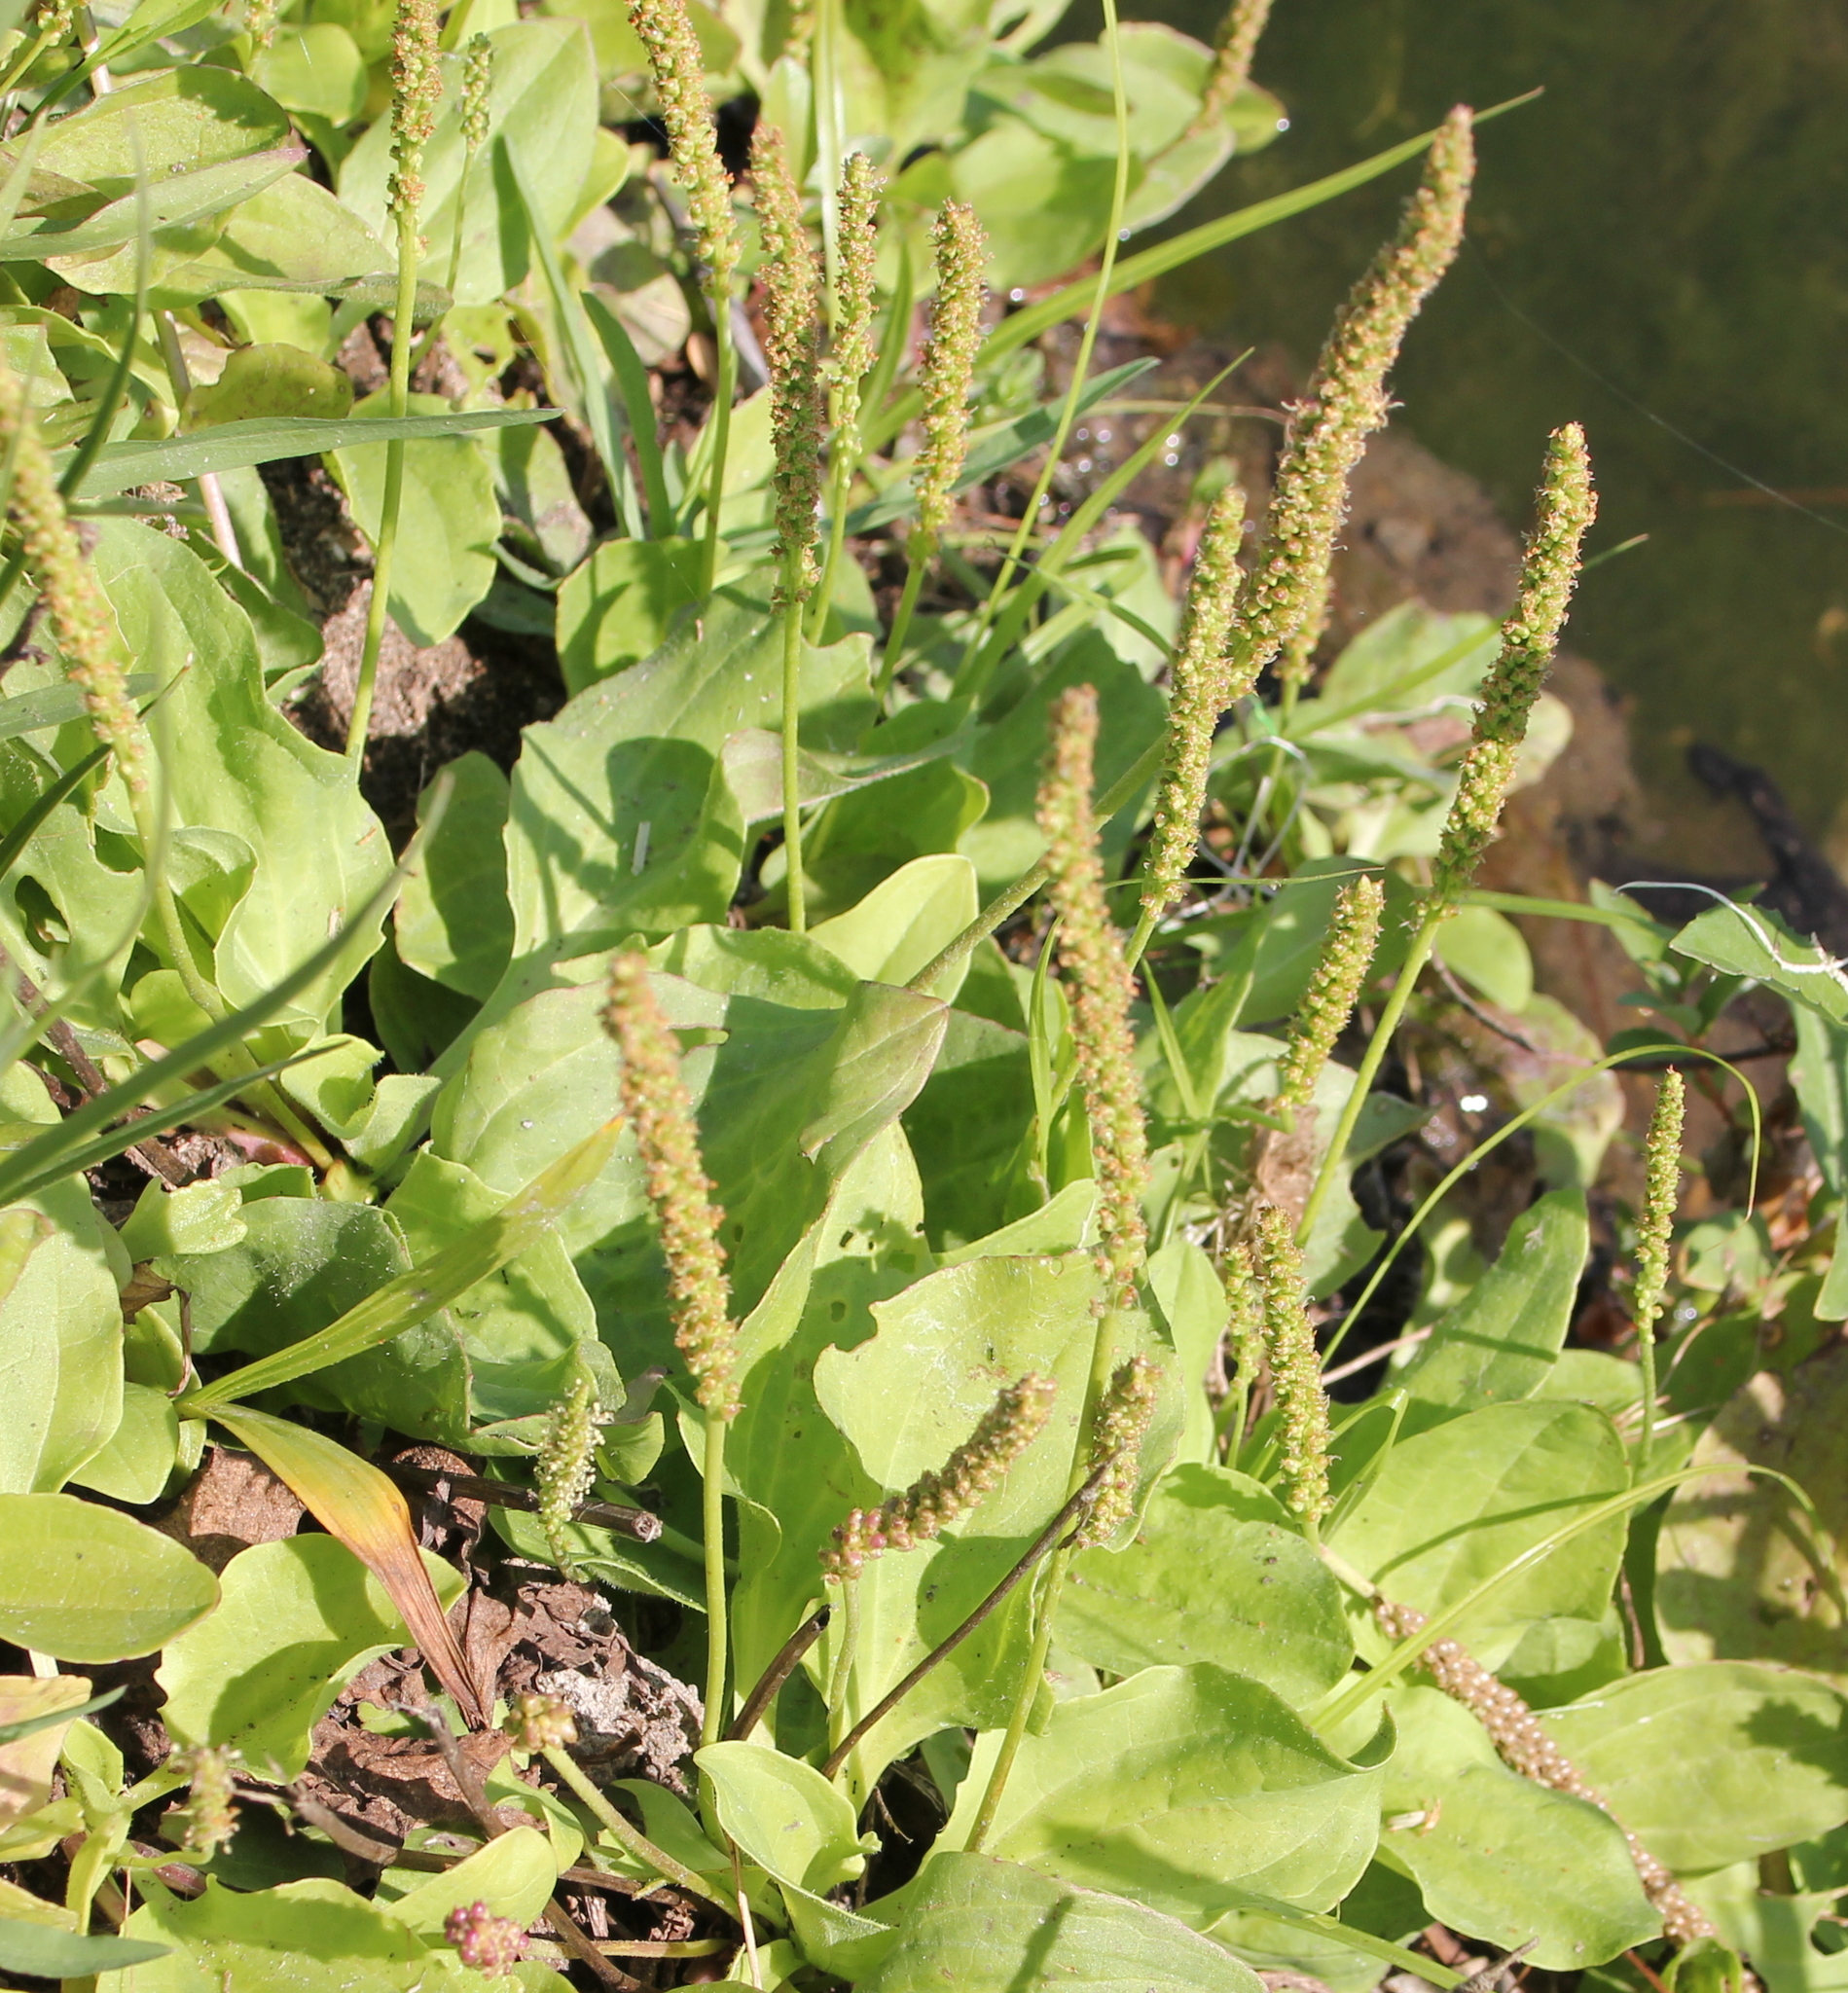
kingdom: Plantae
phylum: Tracheophyta
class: Magnoliopsida
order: Lamiales
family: Plantaginaceae
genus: Plantago
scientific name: Plantago major
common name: Common plantain
